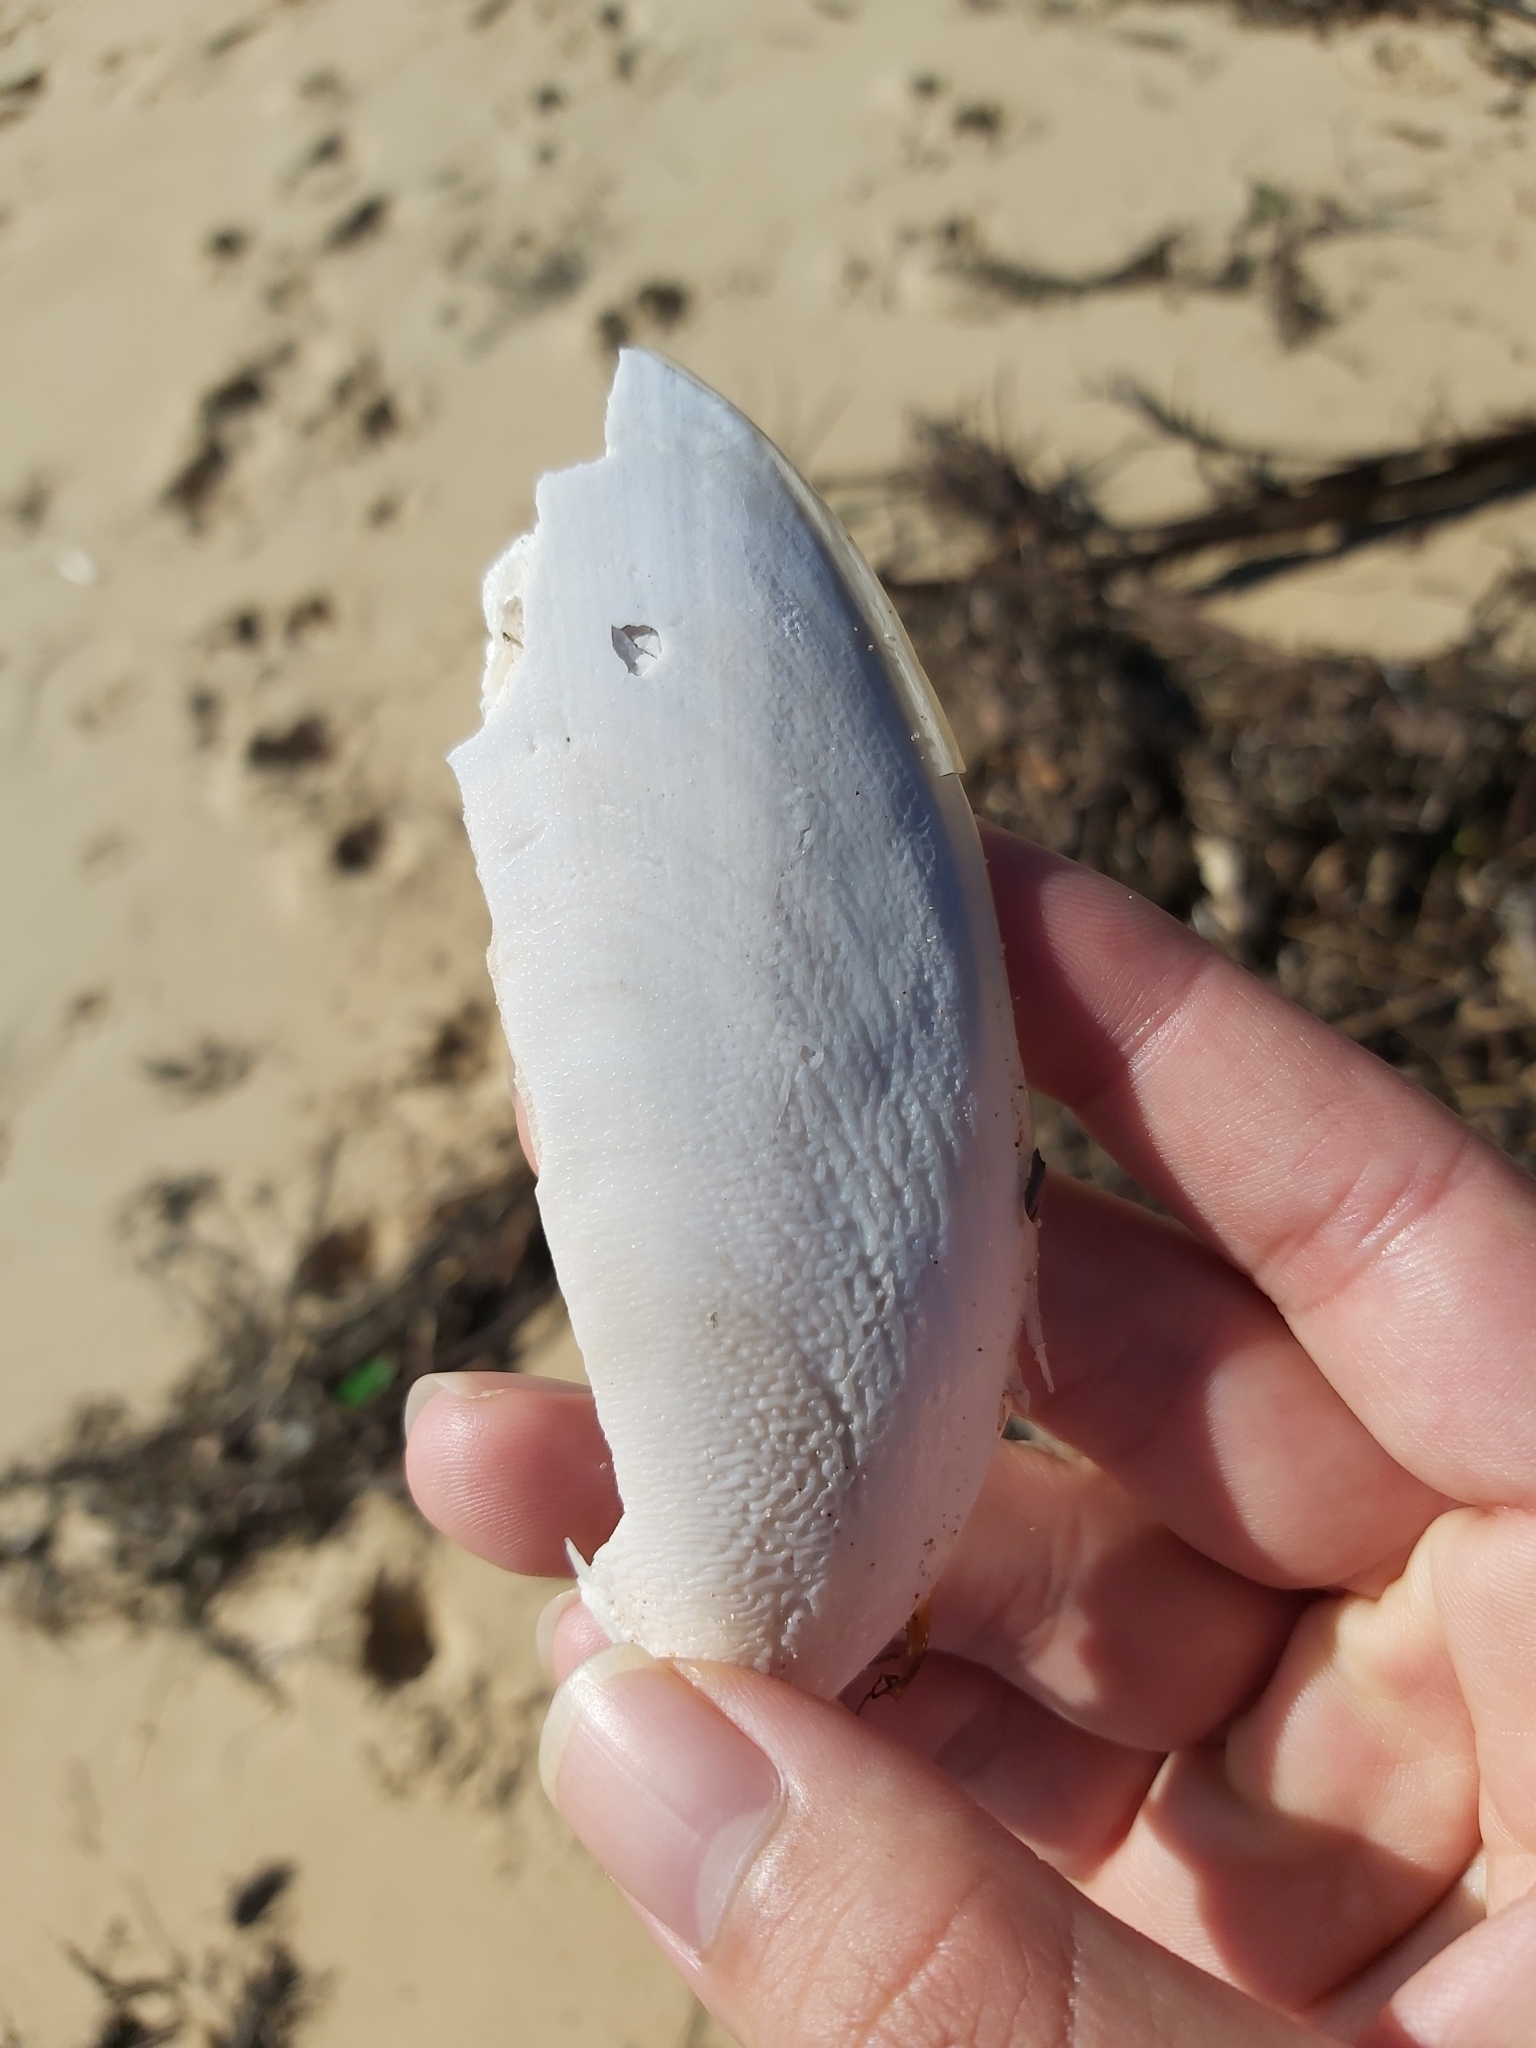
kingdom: Animalia
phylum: Mollusca
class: Cephalopoda
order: Sepiida
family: Sepiidae
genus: Ascarosepion
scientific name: Ascarosepion mestus
